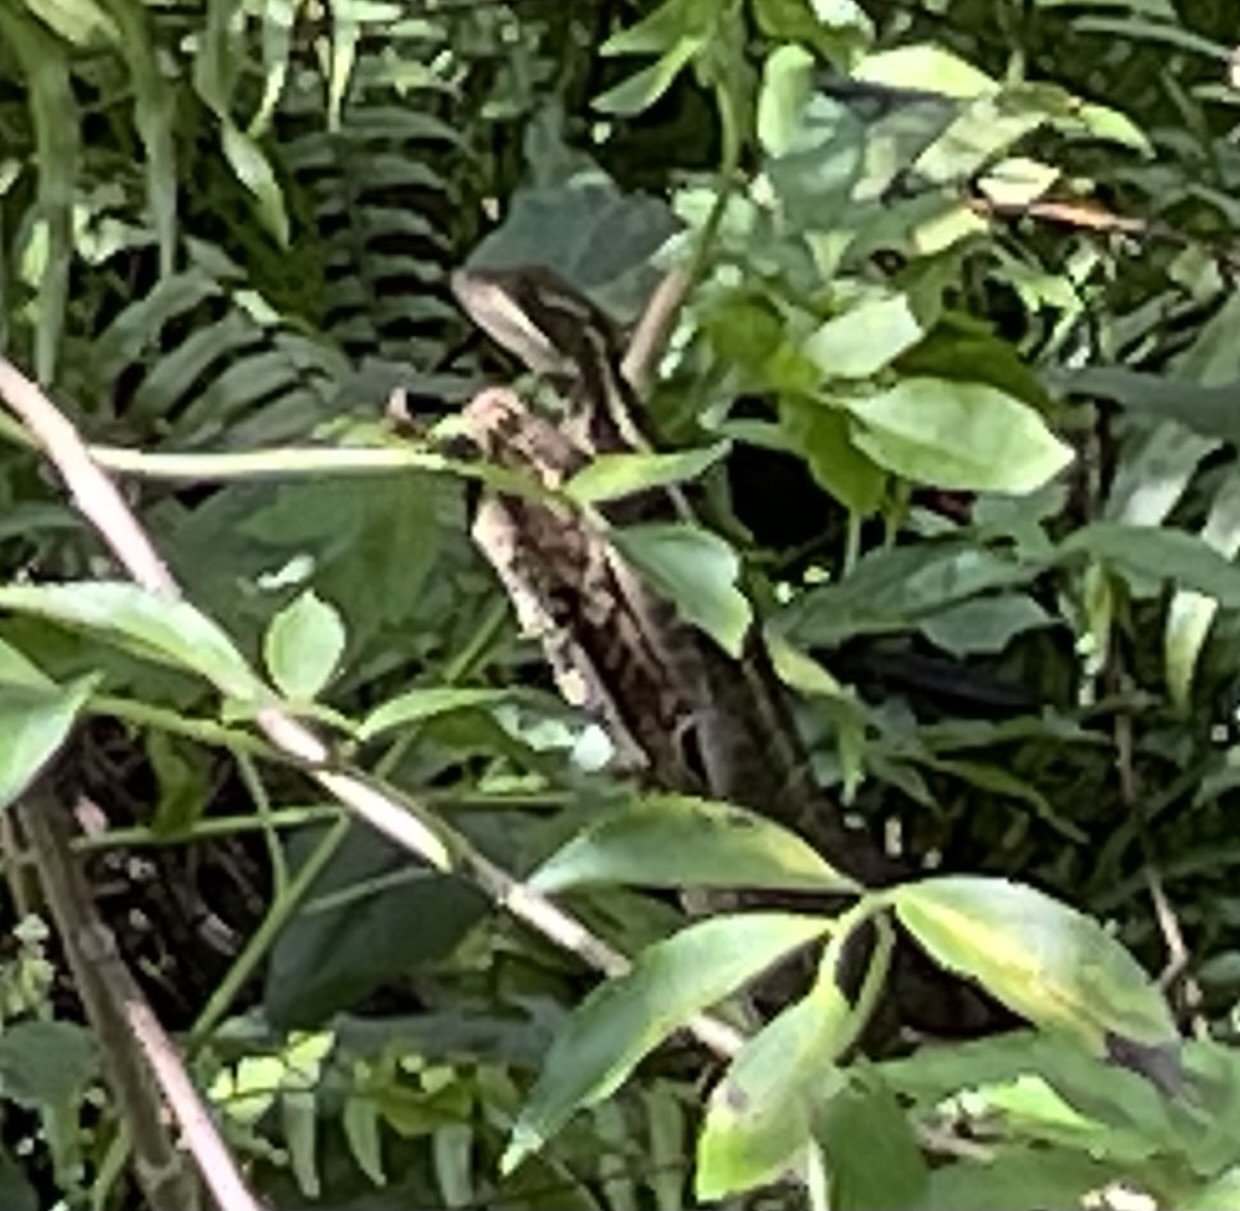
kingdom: Animalia
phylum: Chordata
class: Squamata
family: Corytophanidae
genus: Basiliscus
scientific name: Basiliscus vittatus
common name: Brown basilisk
